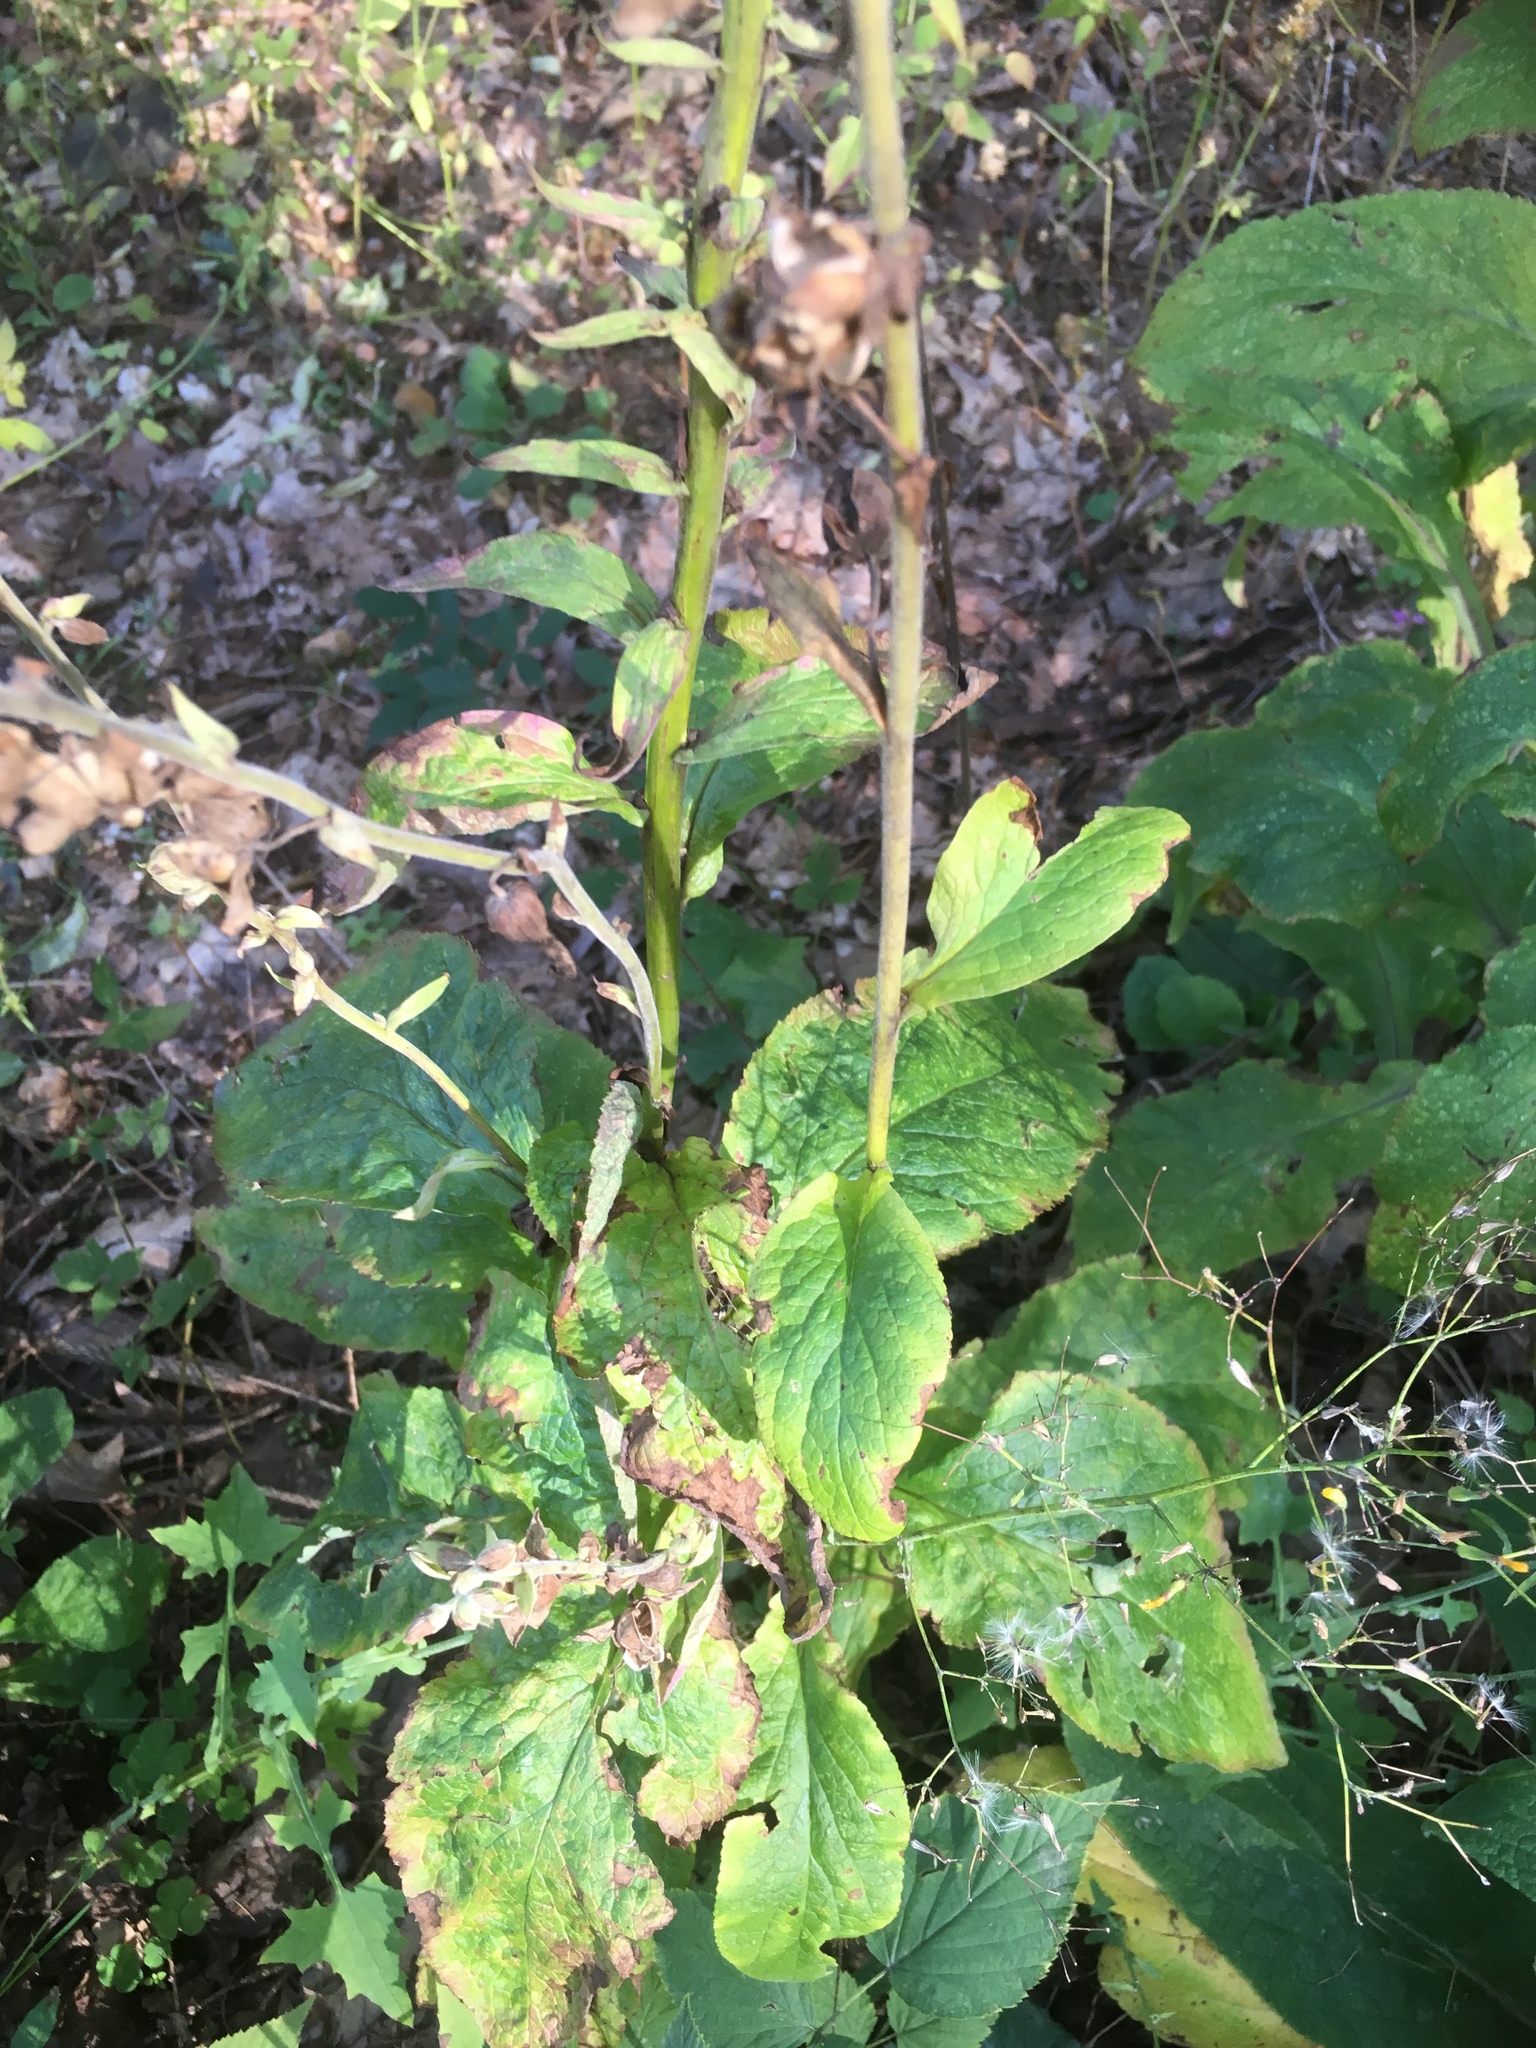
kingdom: Plantae
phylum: Tracheophyta
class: Magnoliopsida
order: Lamiales
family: Plantaginaceae
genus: Digitalis
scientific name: Digitalis purpurea
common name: Foxglove
